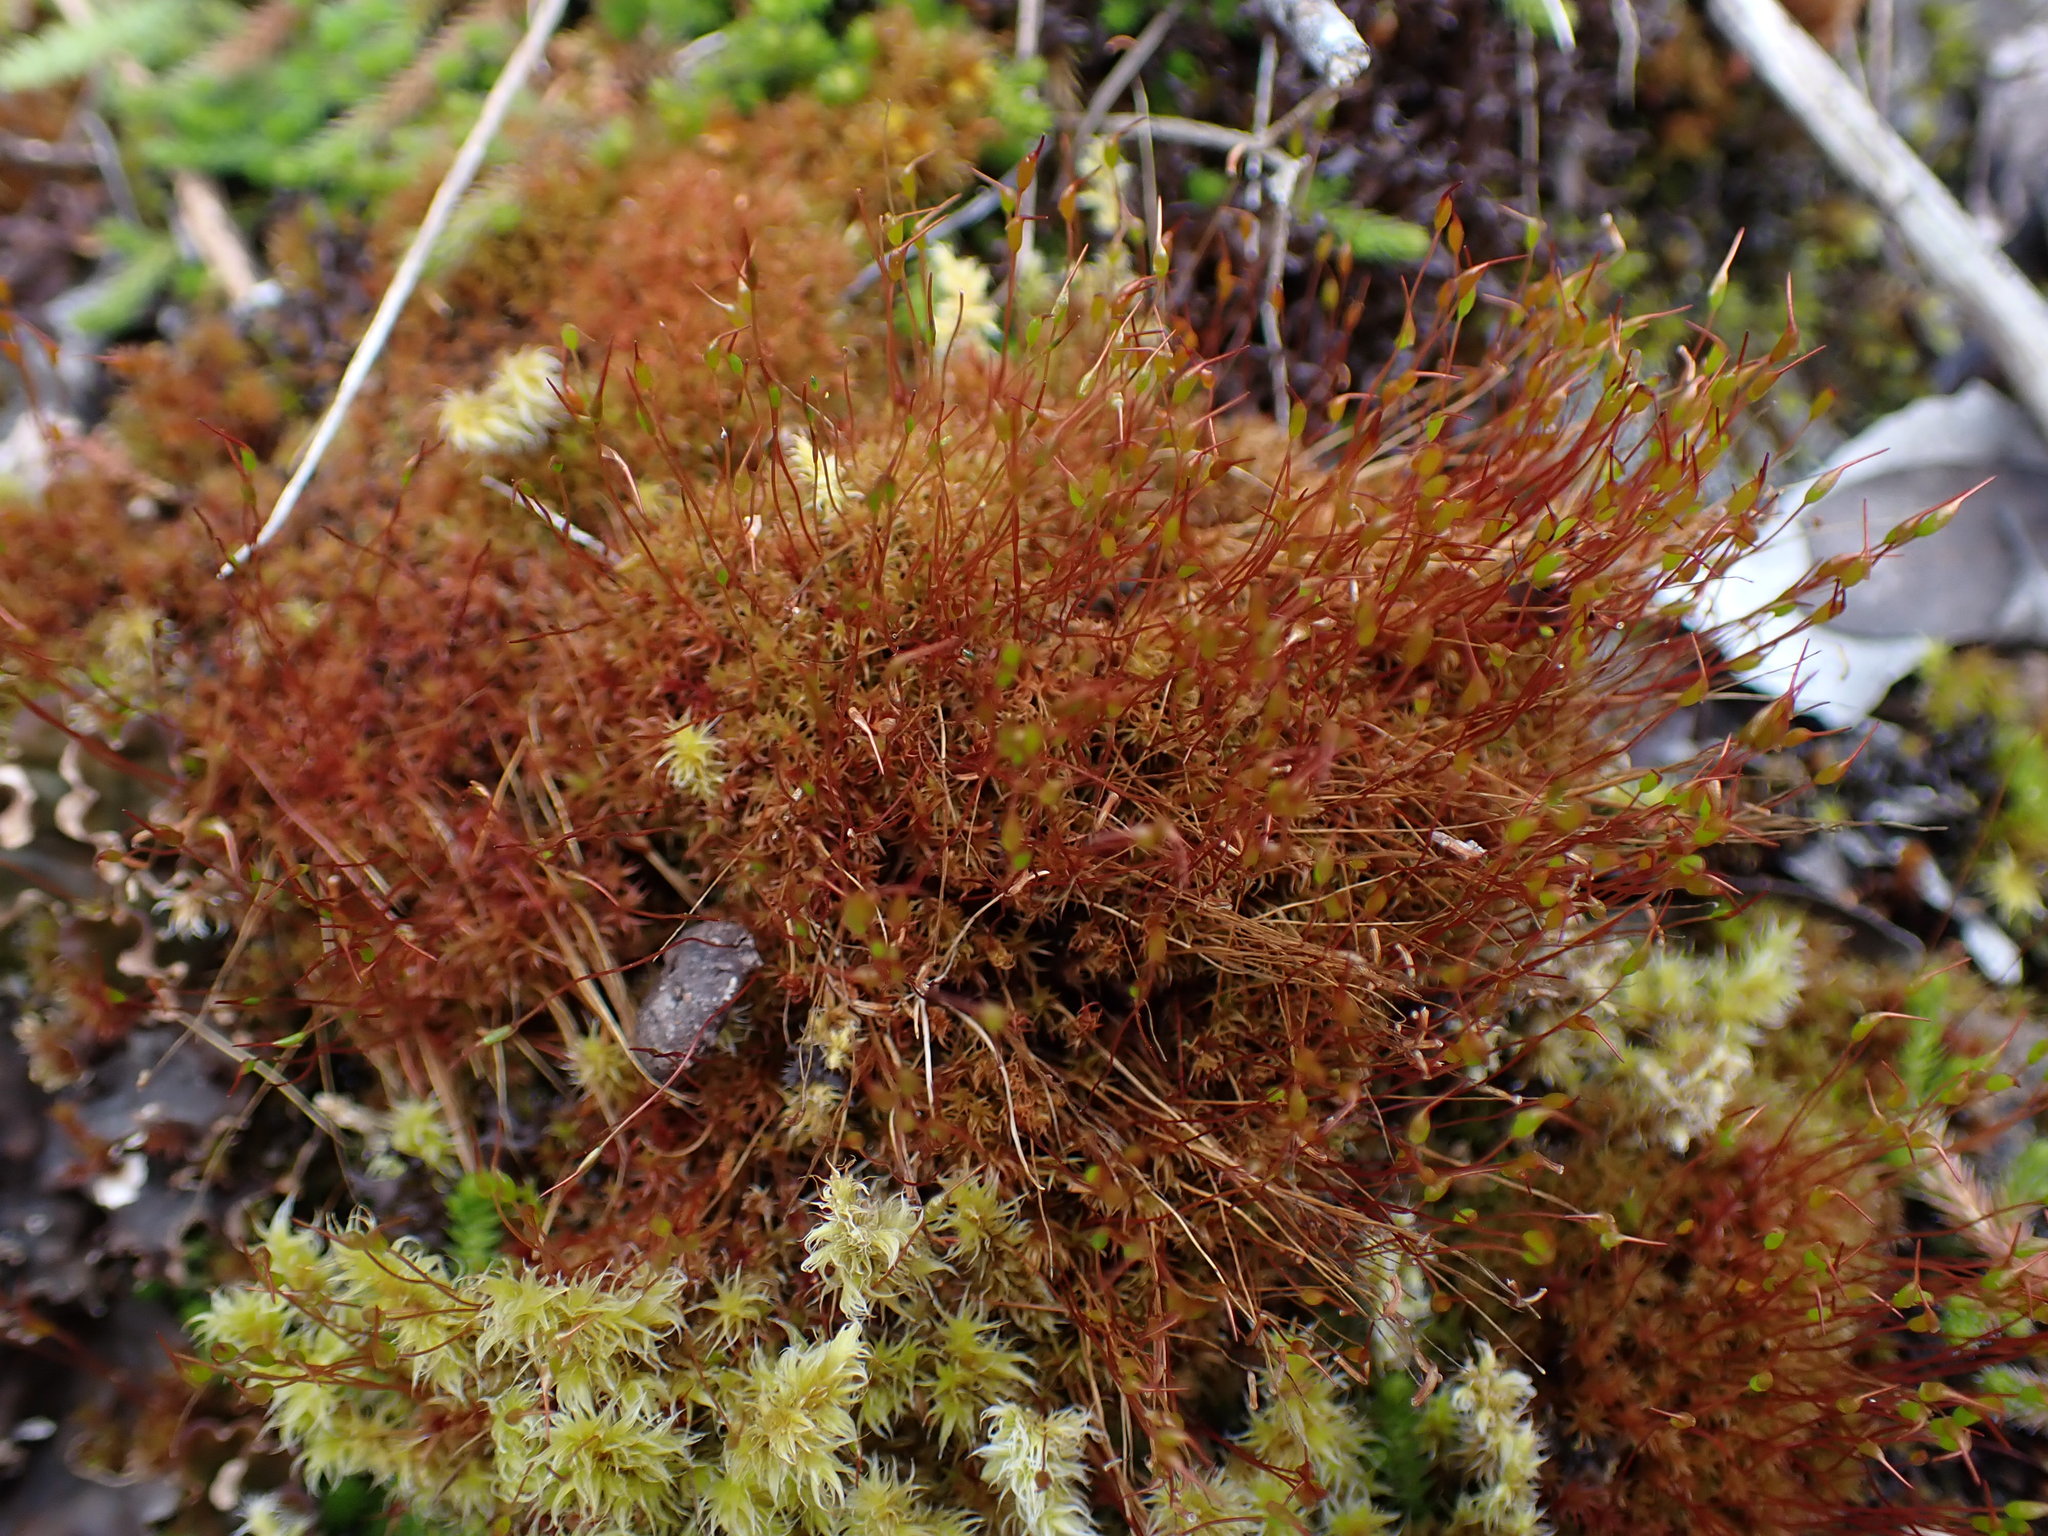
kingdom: Plantae
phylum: Bryophyta
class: Bryopsida
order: Dicranales
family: Ditrichaceae
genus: Ceratodon
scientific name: Ceratodon purpureus
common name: Redshank
